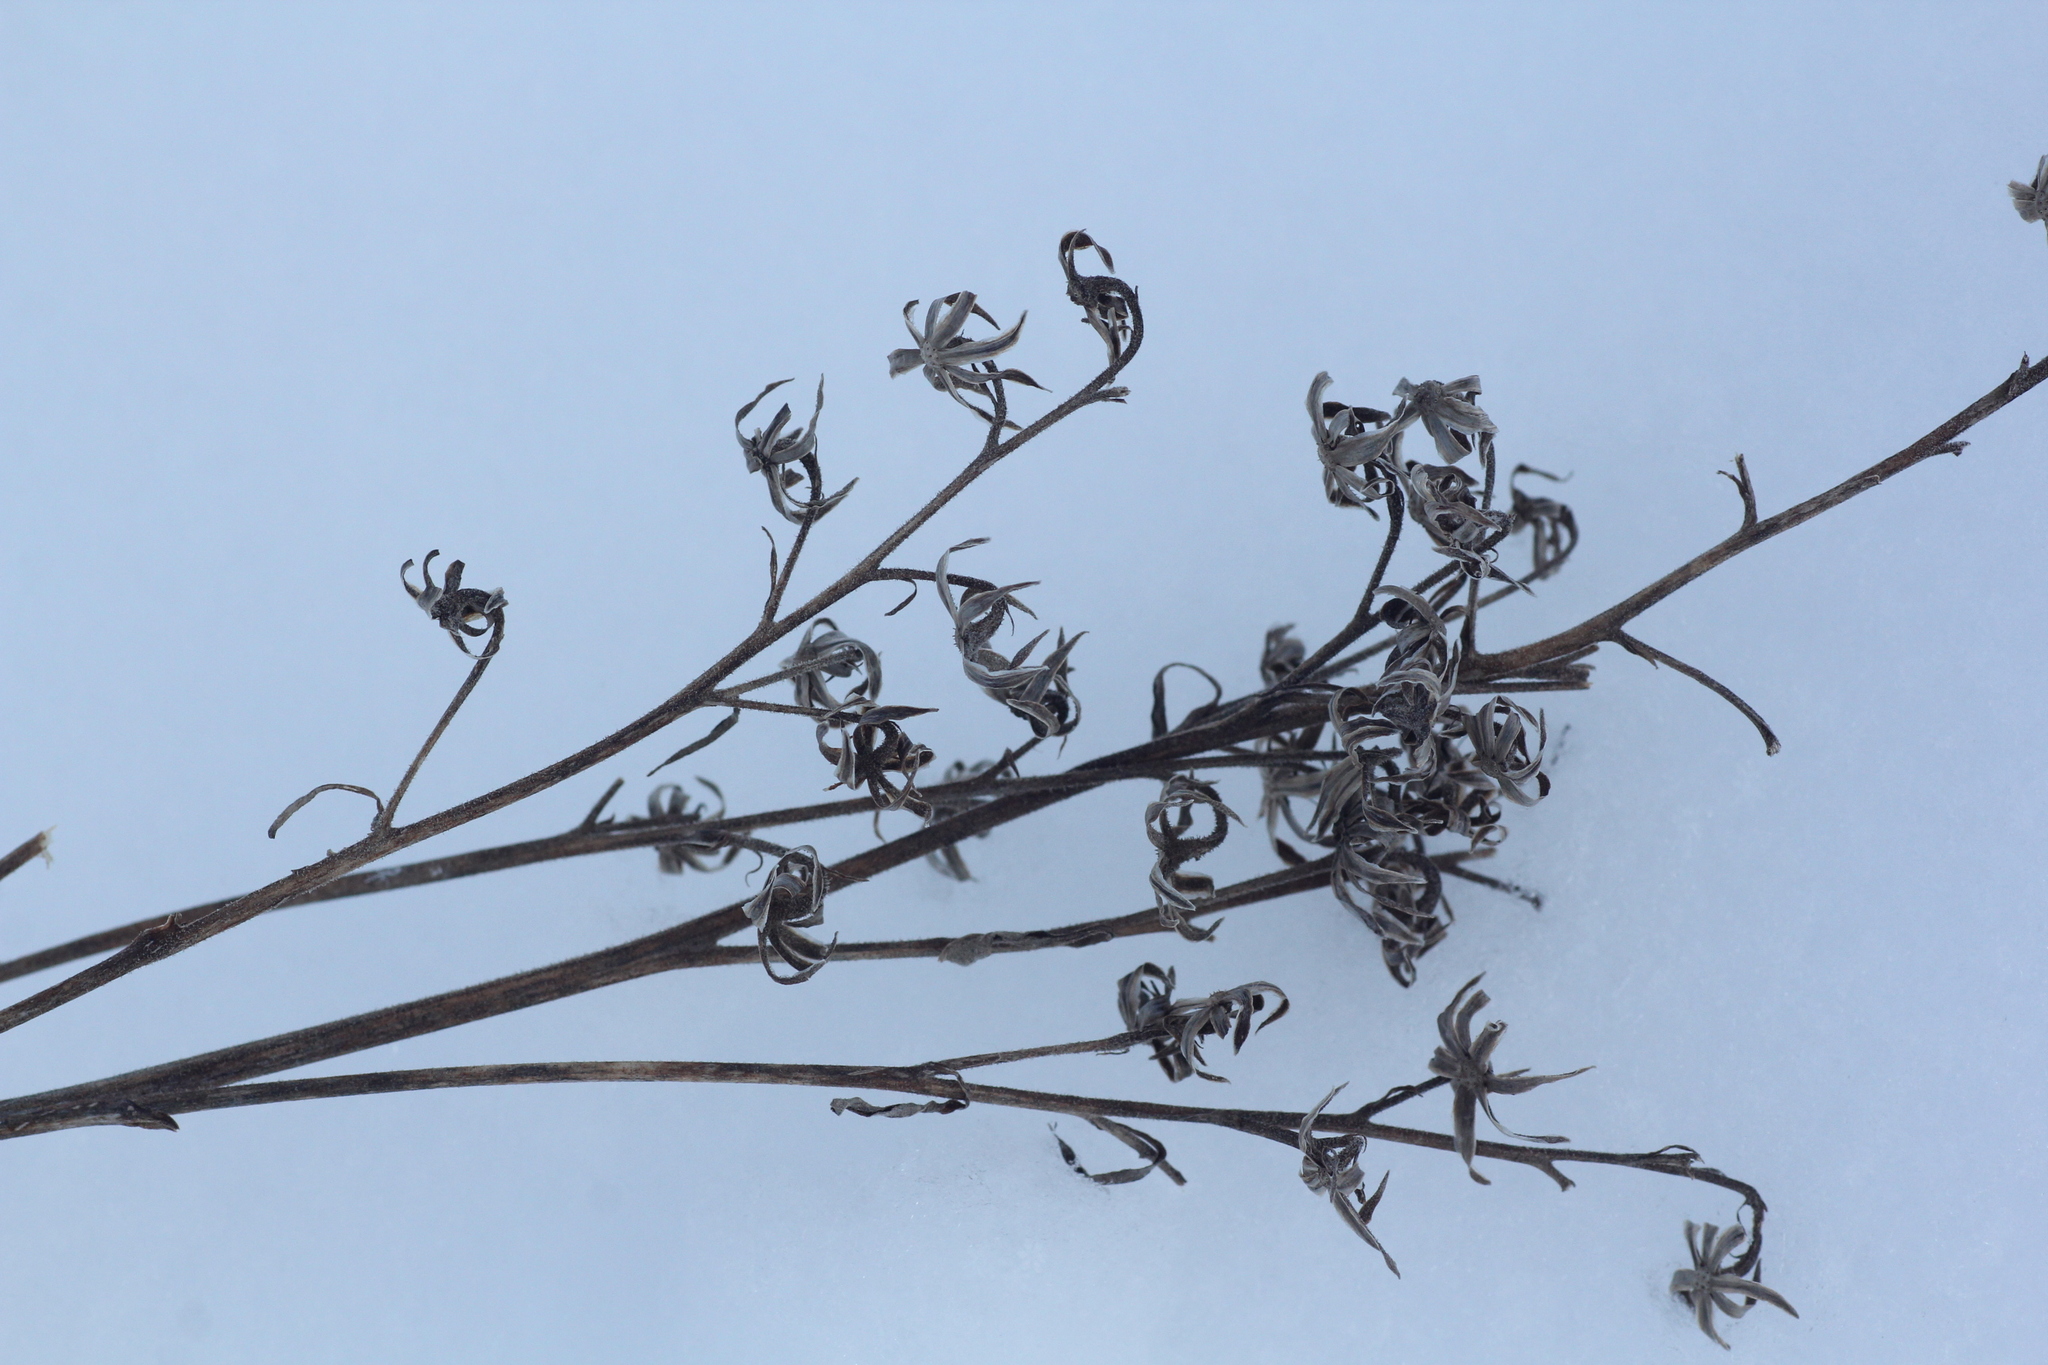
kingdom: Plantae
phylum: Tracheophyta
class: Magnoliopsida
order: Asterales
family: Asteraceae
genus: Parasenecio
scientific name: Parasenecio hastatus
